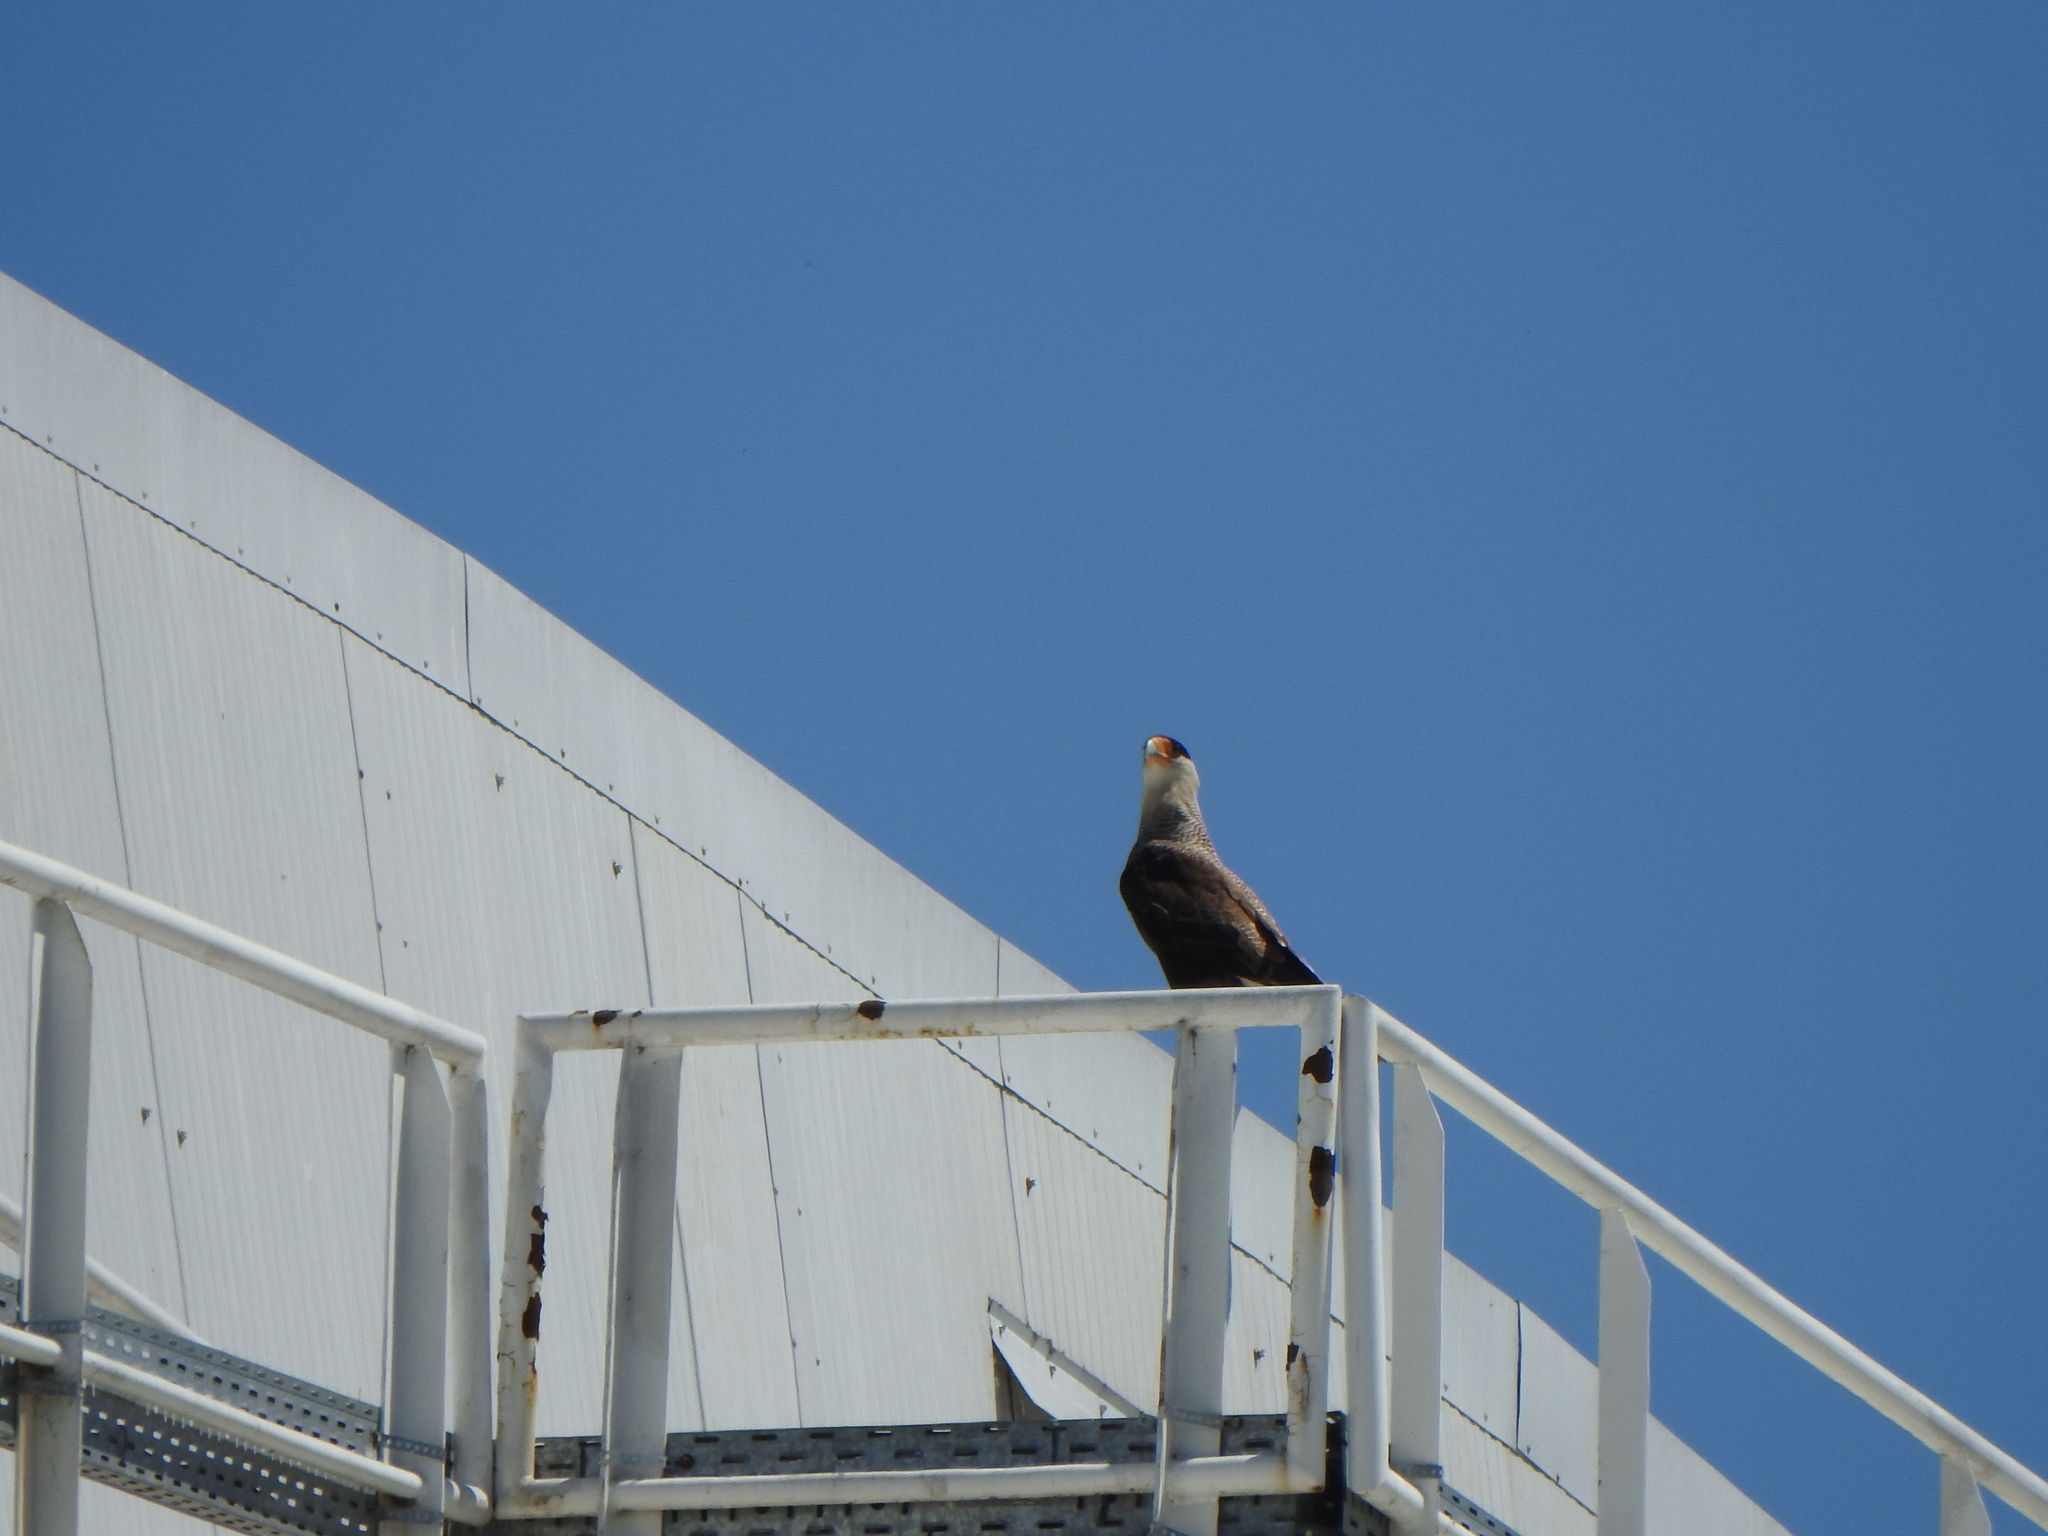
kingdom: Animalia
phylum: Chordata
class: Aves
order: Falconiformes
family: Falconidae
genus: Caracara
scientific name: Caracara plancus
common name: Southern caracara
